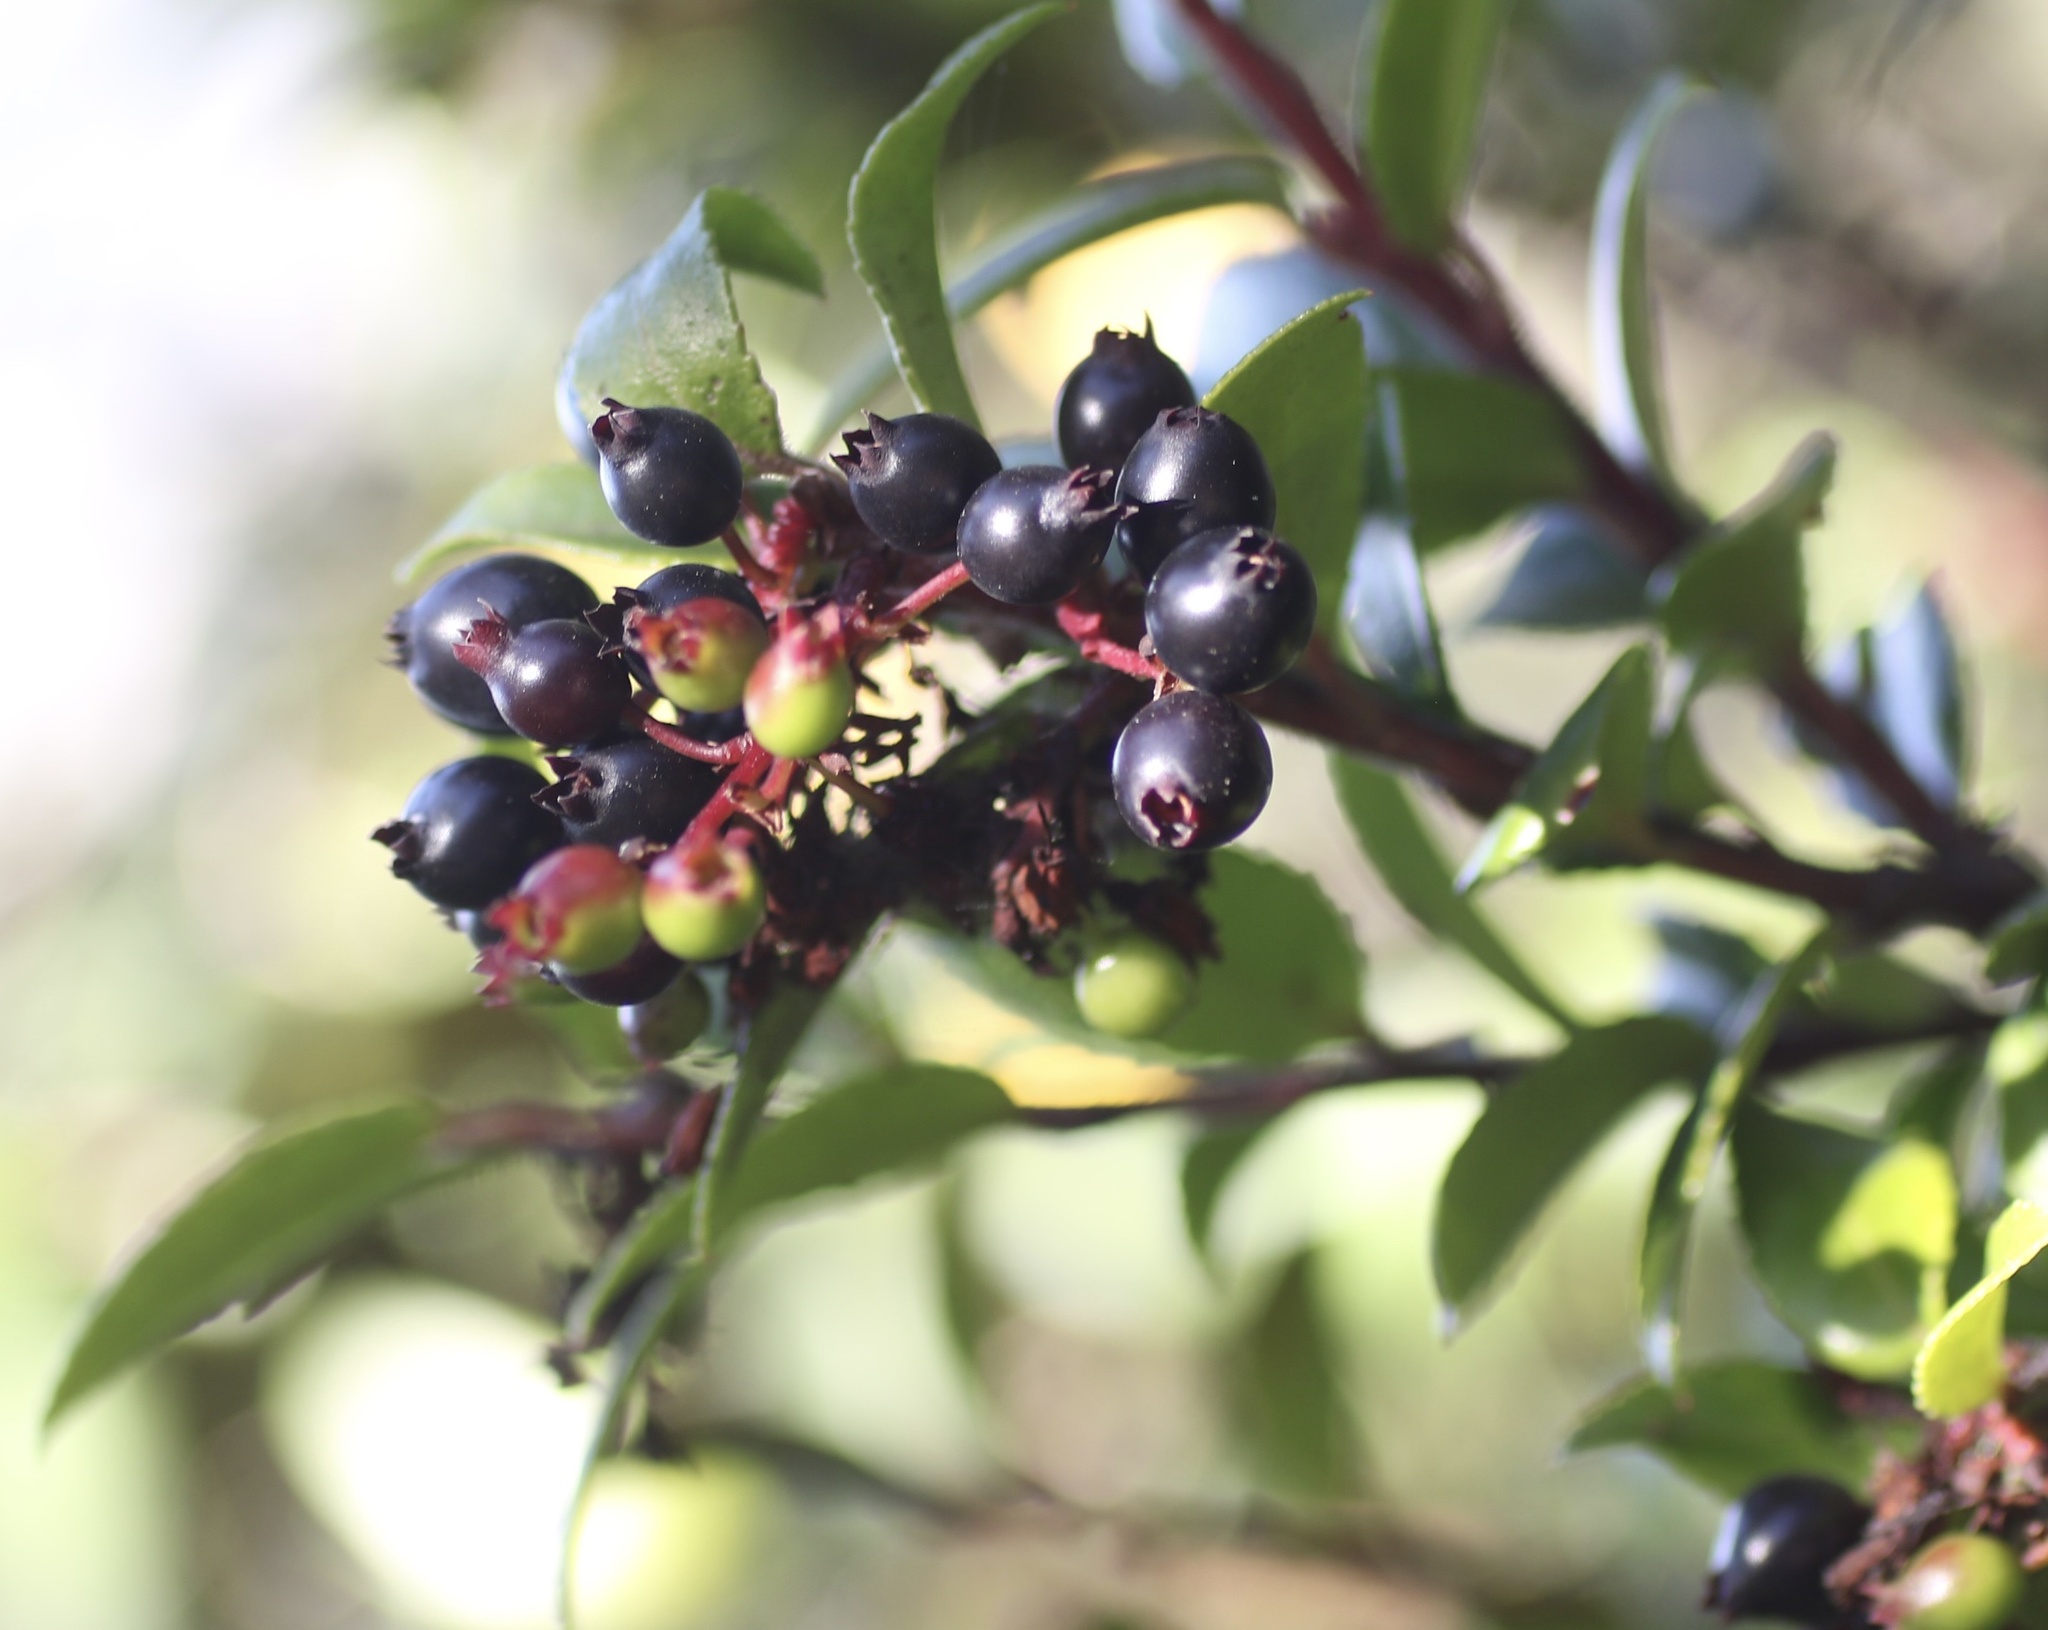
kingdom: Plantae
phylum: Tracheophyta
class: Magnoliopsida
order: Ericales
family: Ericaceae
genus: Vaccinium
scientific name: Vaccinium ovatum
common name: California-huckleberry
